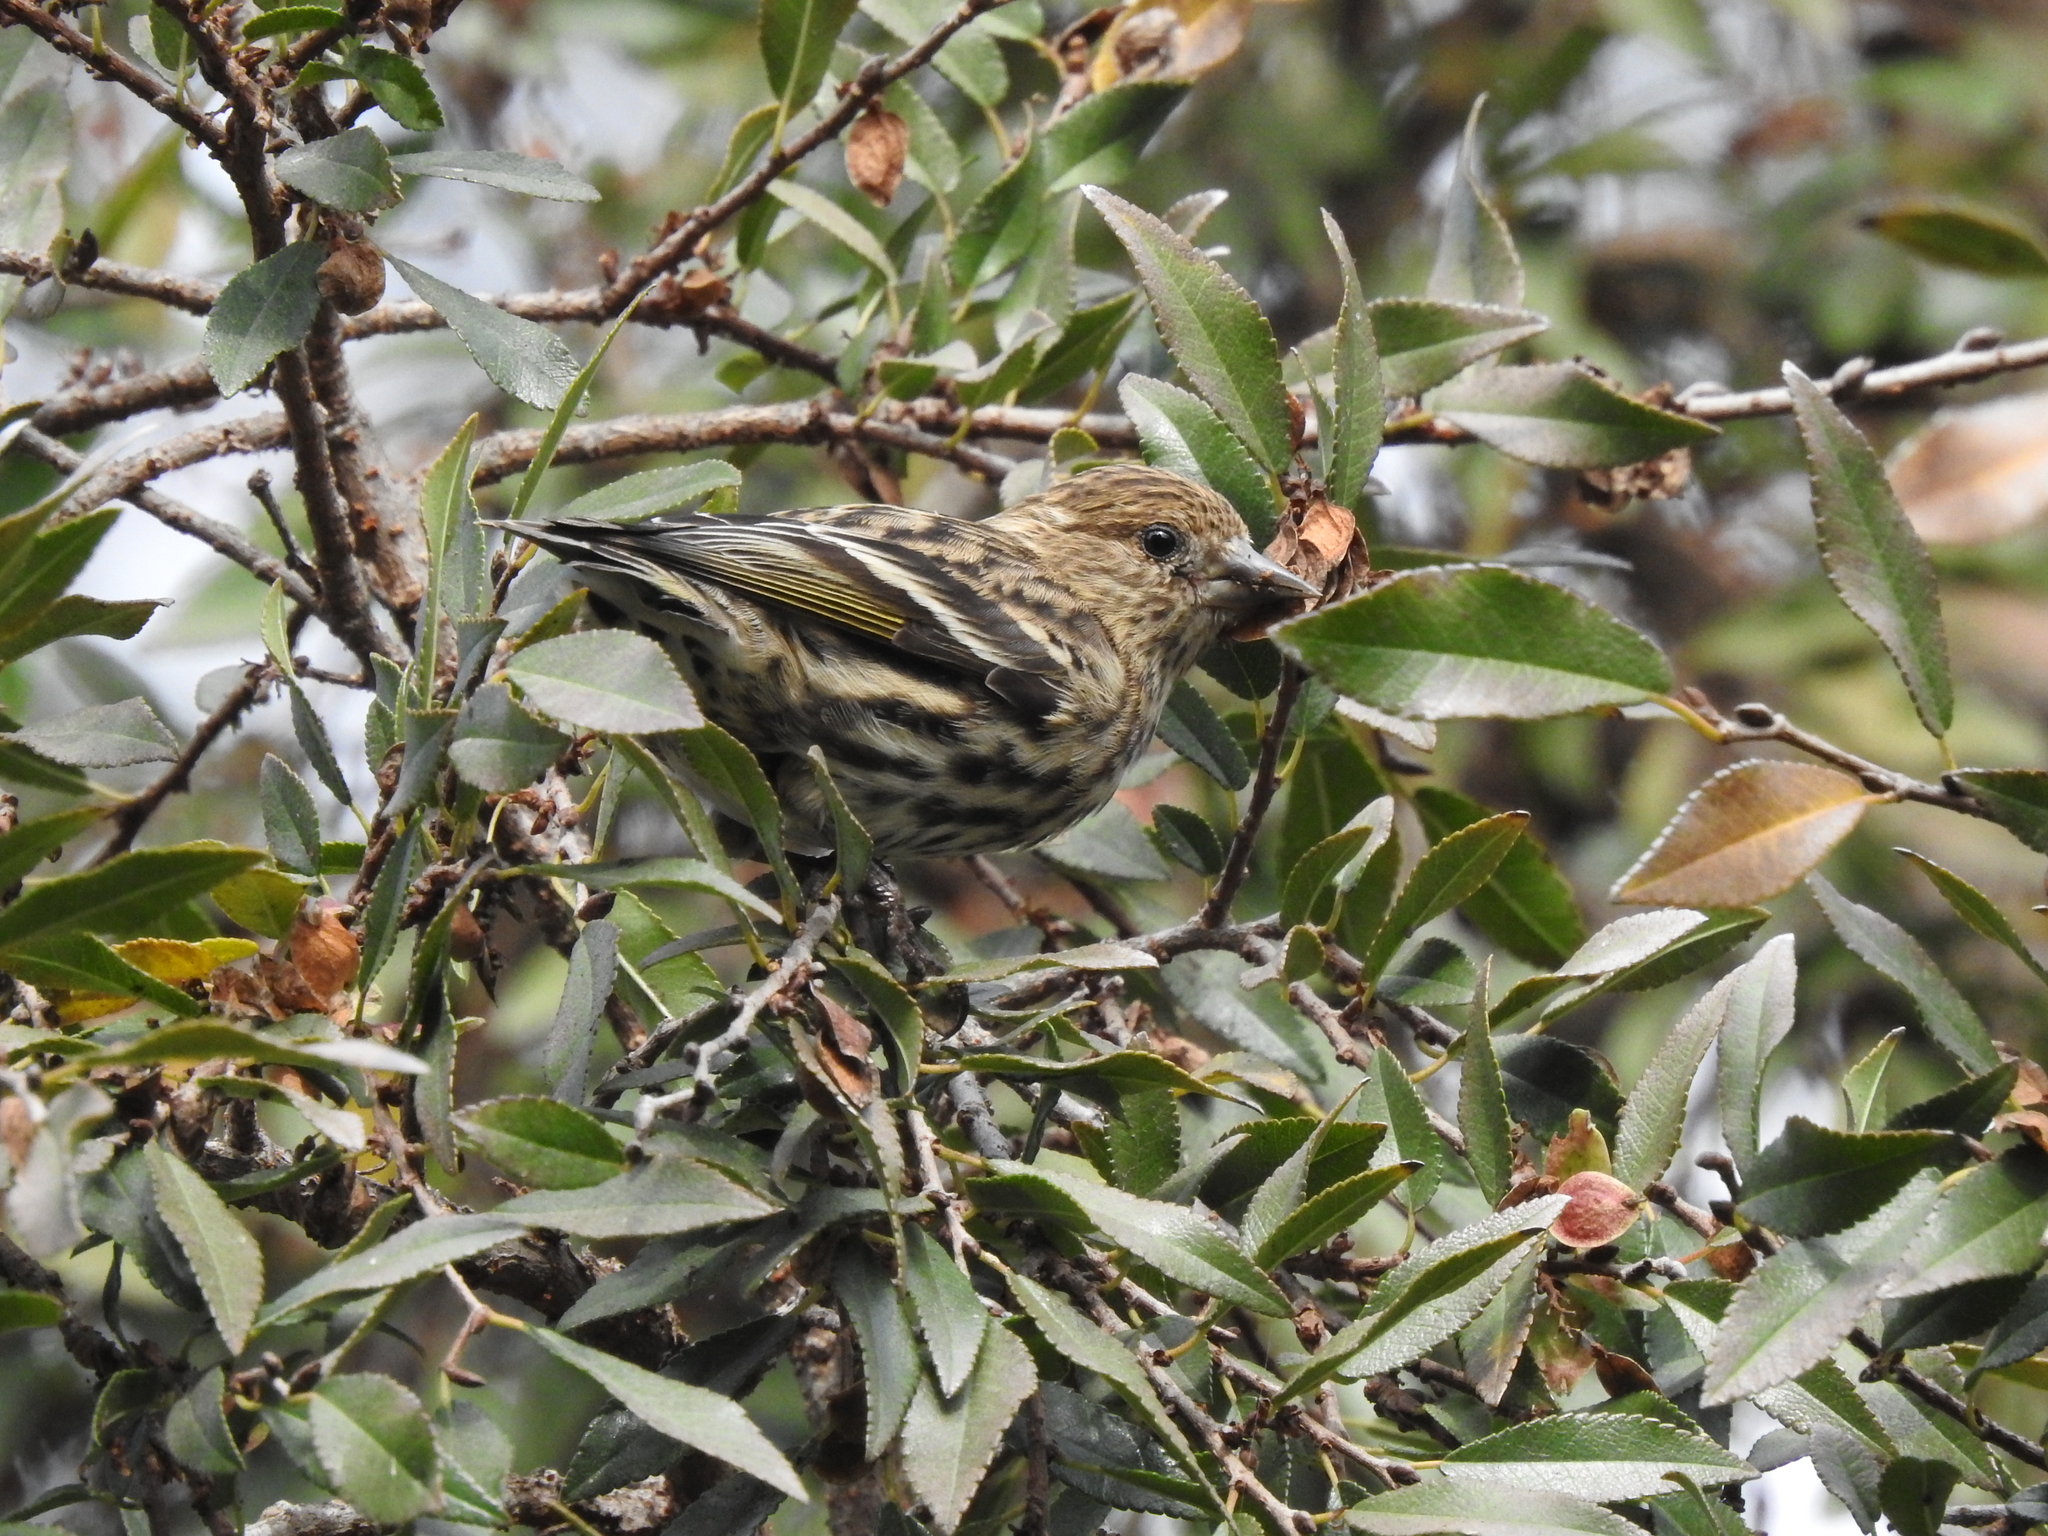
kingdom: Animalia
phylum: Chordata
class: Aves
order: Passeriformes
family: Fringillidae
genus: Spinus
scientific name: Spinus pinus
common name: Pine siskin
